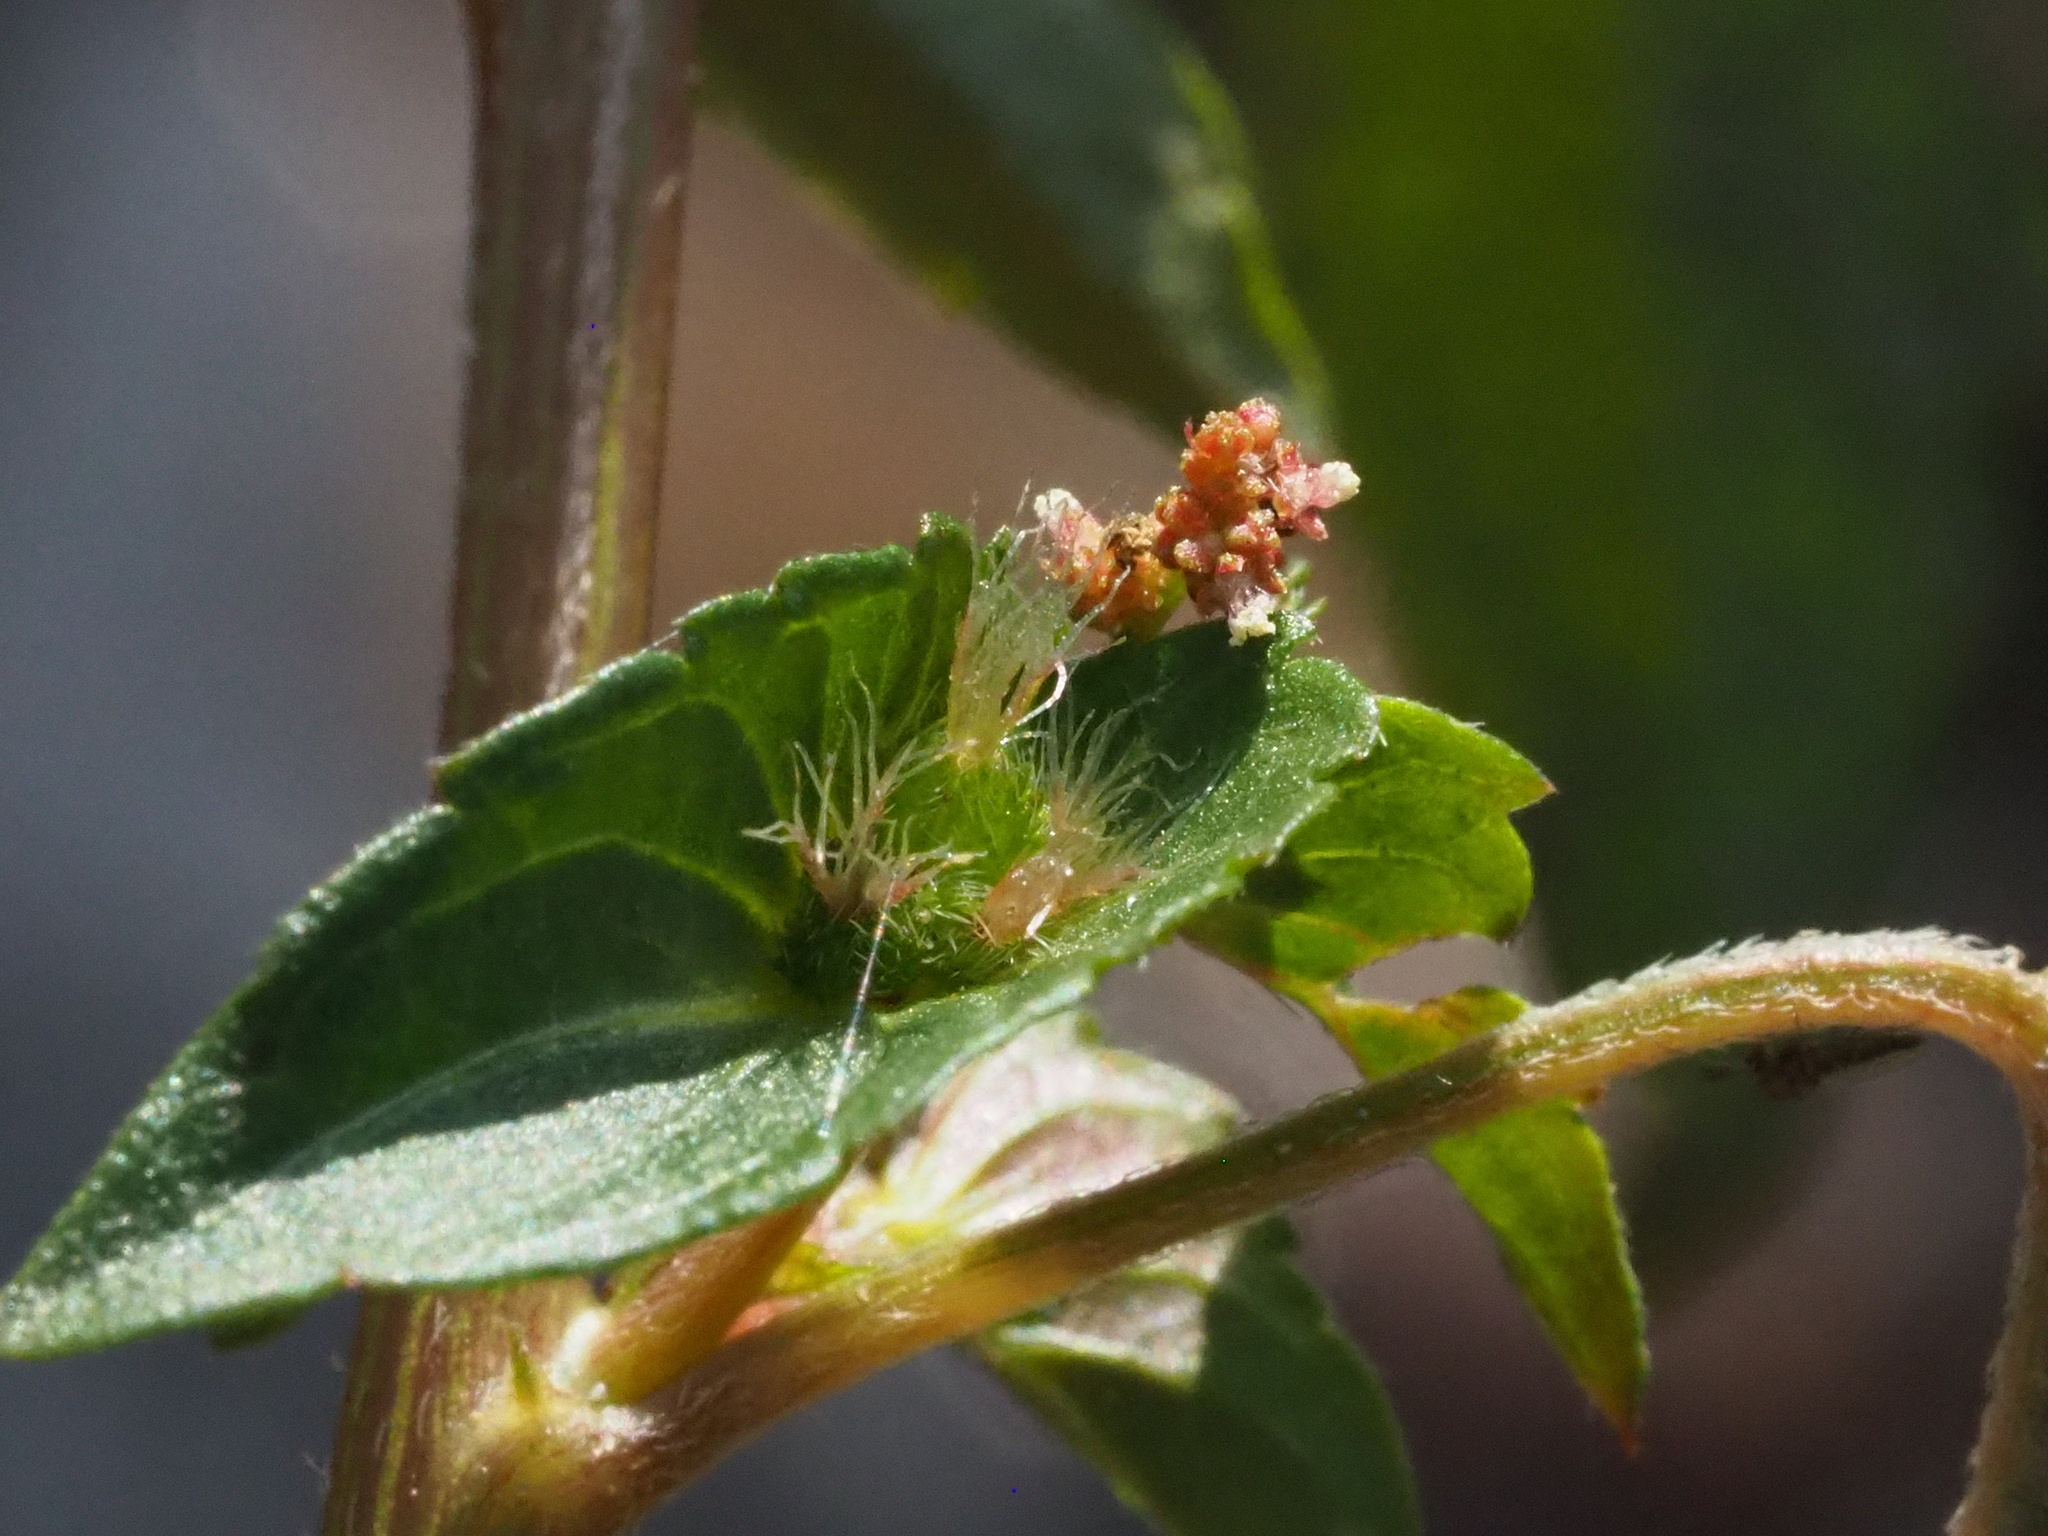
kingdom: Plantae
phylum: Tracheophyta
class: Magnoliopsida
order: Malpighiales
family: Euphorbiaceae
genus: Acalypha
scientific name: Acalypha australis
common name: Asian copperleaf
